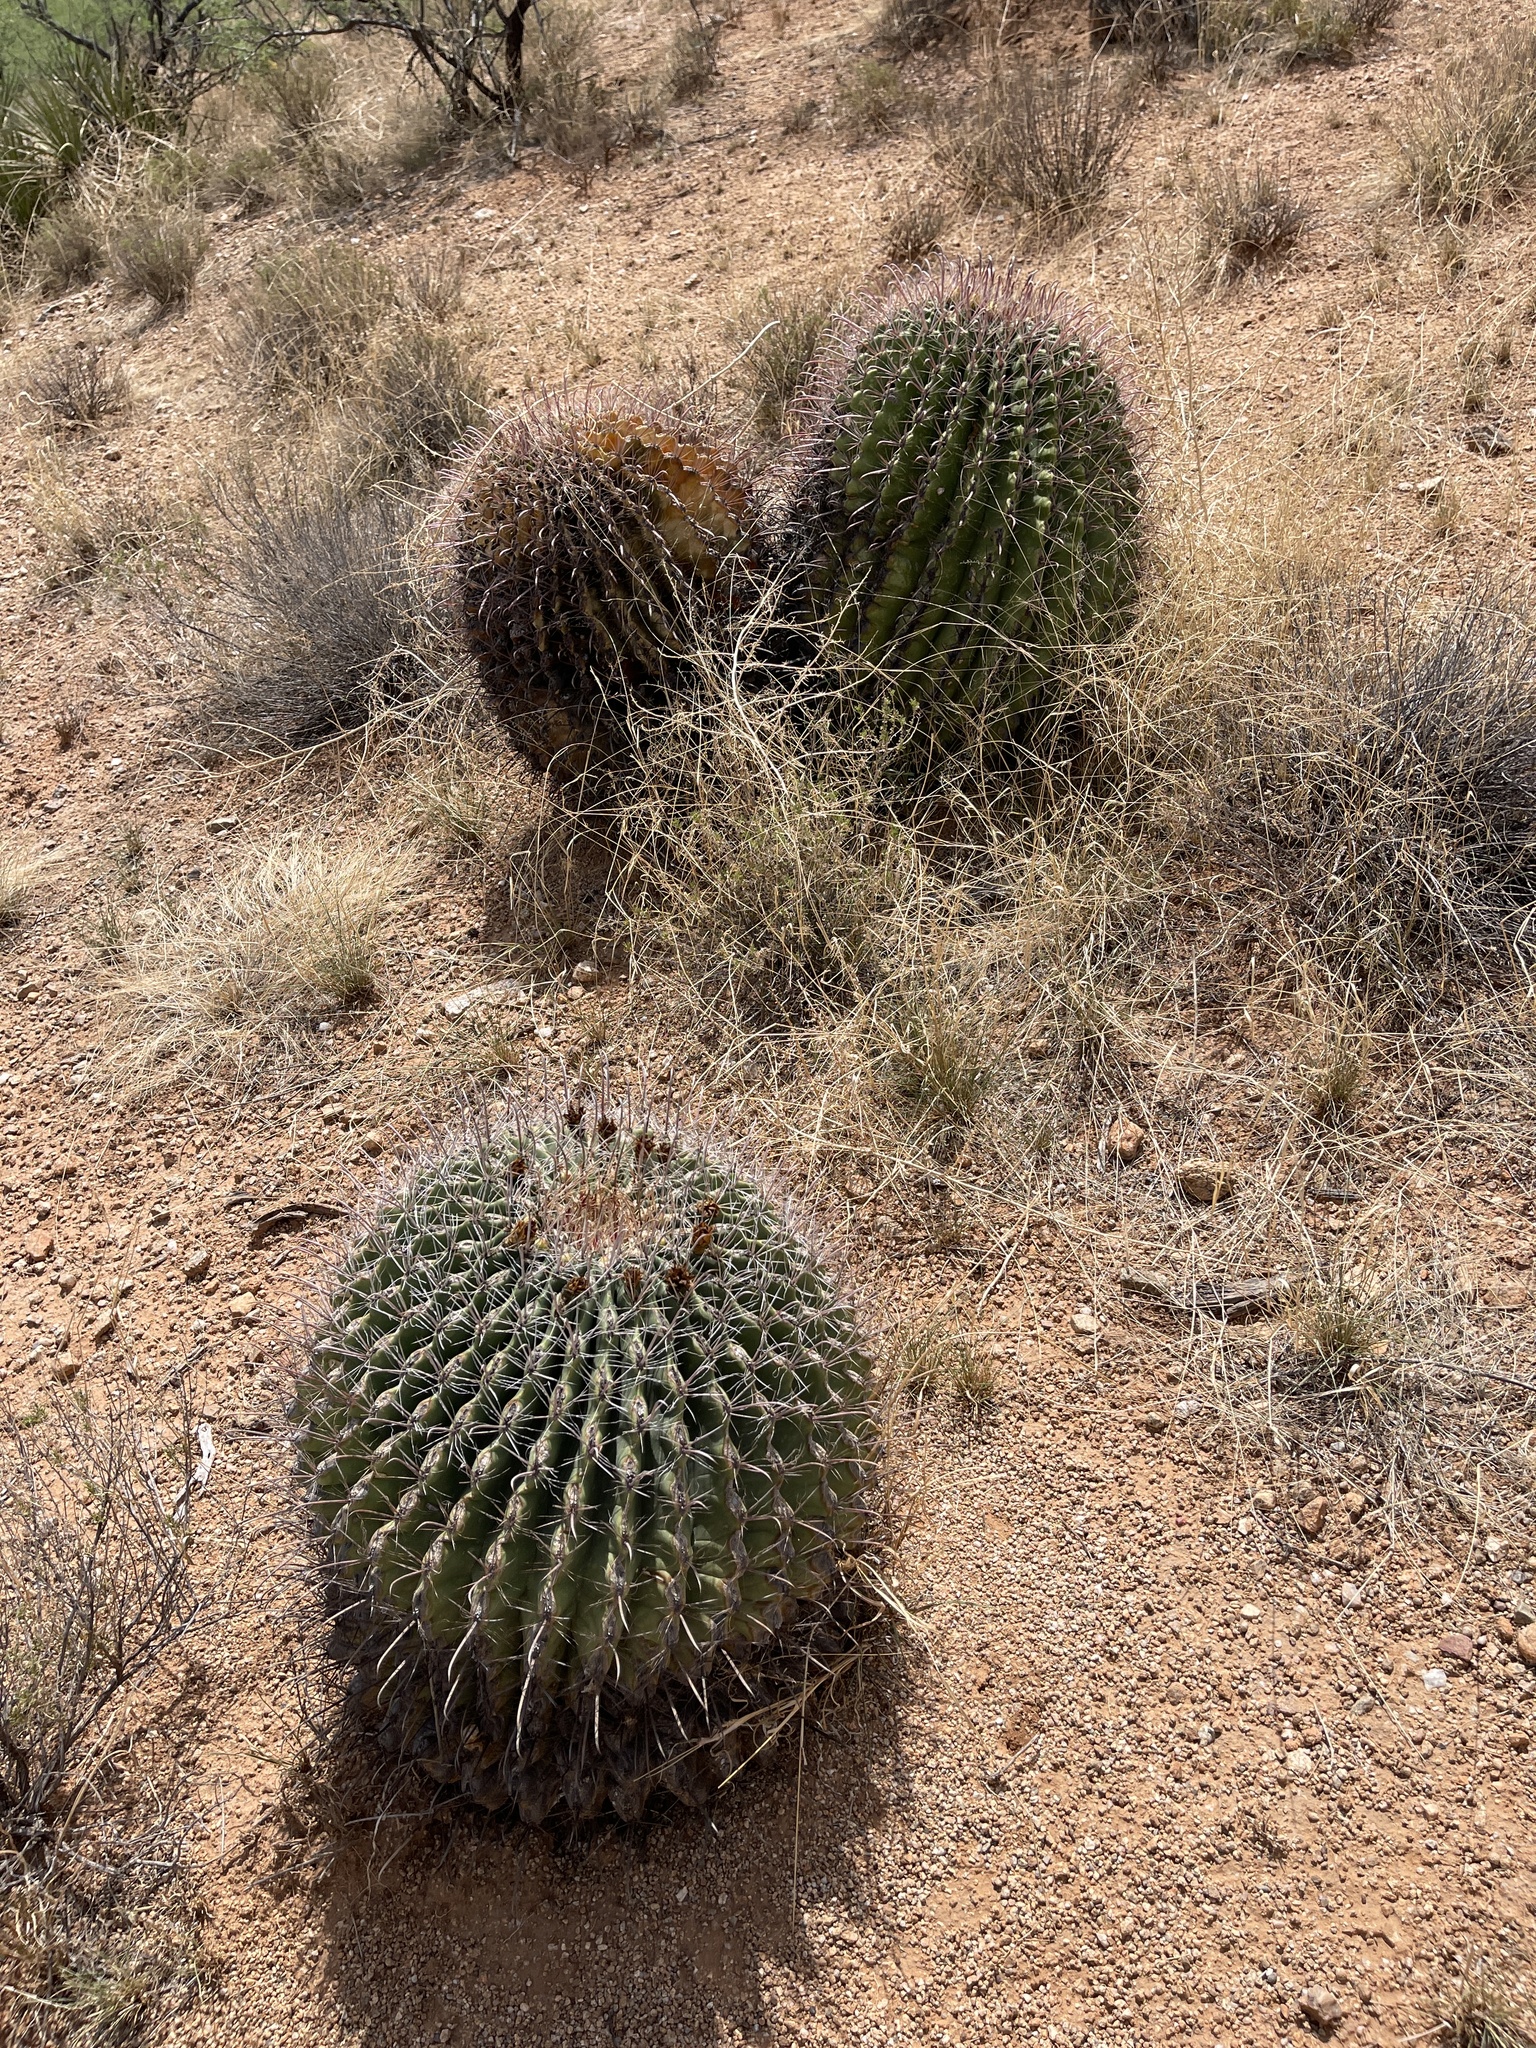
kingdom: Plantae
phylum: Tracheophyta
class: Magnoliopsida
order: Caryophyllales
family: Cactaceae
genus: Ferocactus
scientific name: Ferocactus wislizeni
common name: Candy barrel cactus
